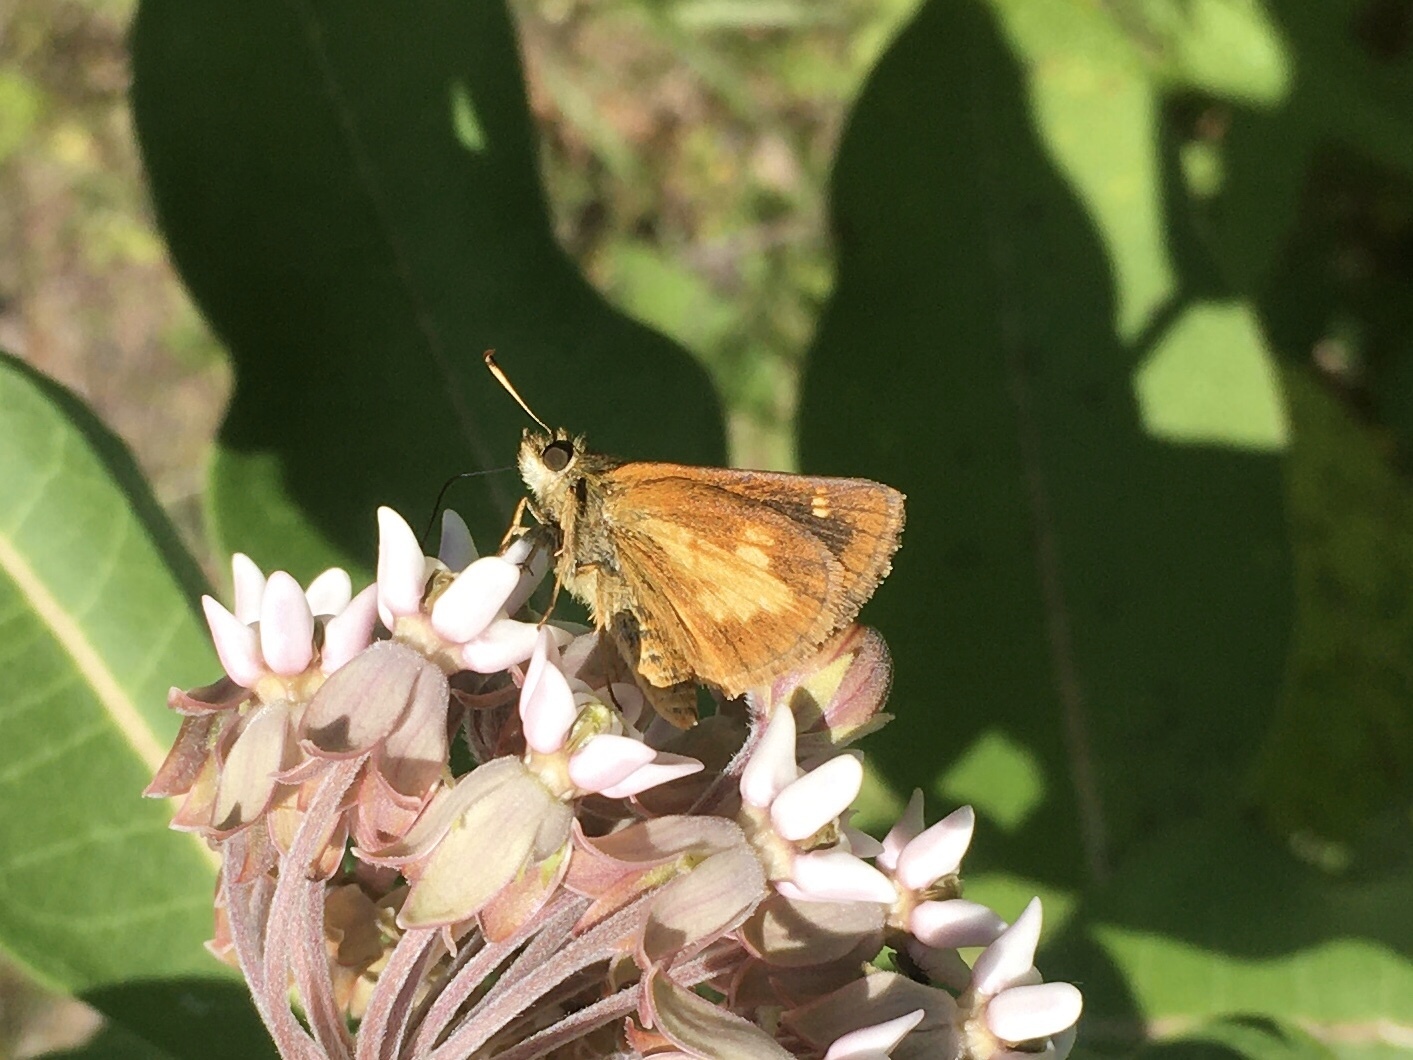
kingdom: Animalia
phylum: Arthropoda
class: Insecta
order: Lepidoptera
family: Hesperiidae
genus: Poanes
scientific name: Poanes massasoit
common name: Mulberrywing
